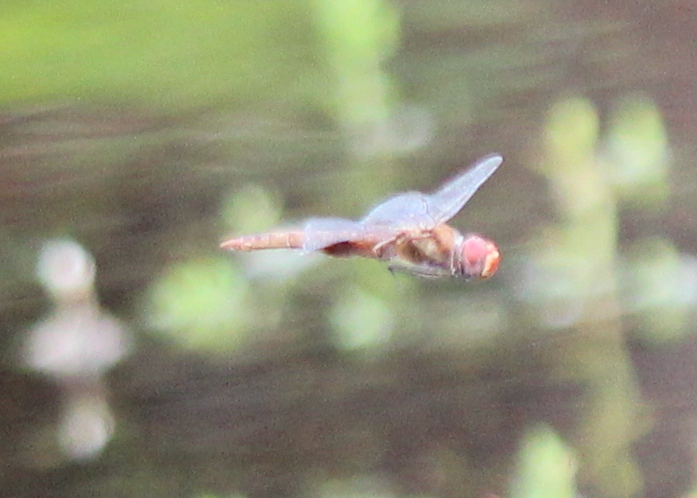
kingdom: Animalia
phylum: Arthropoda
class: Insecta
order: Odonata
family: Libellulidae
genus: Pantala
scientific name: Pantala hymenaea
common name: Spot-winged glider
